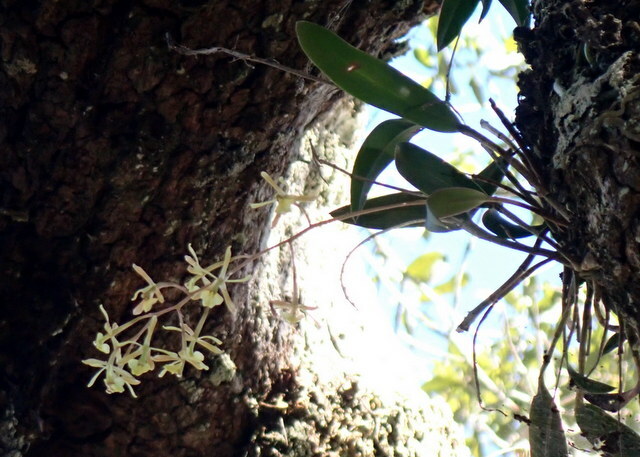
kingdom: Plantae
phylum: Tracheophyta
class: Liliopsida
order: Asparagales
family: Orchidaceae
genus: Epidendrum
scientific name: Epidendrum conopseum
